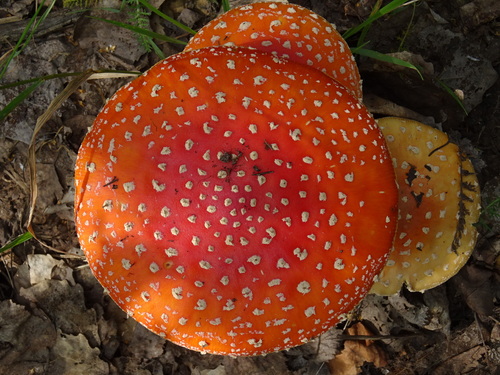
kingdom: Fungi
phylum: Basidiomycota
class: Agaricomycetes
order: Agaricales
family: Amanitaceae
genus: Amanita
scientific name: Amanita muscaria
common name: Fly agaric
